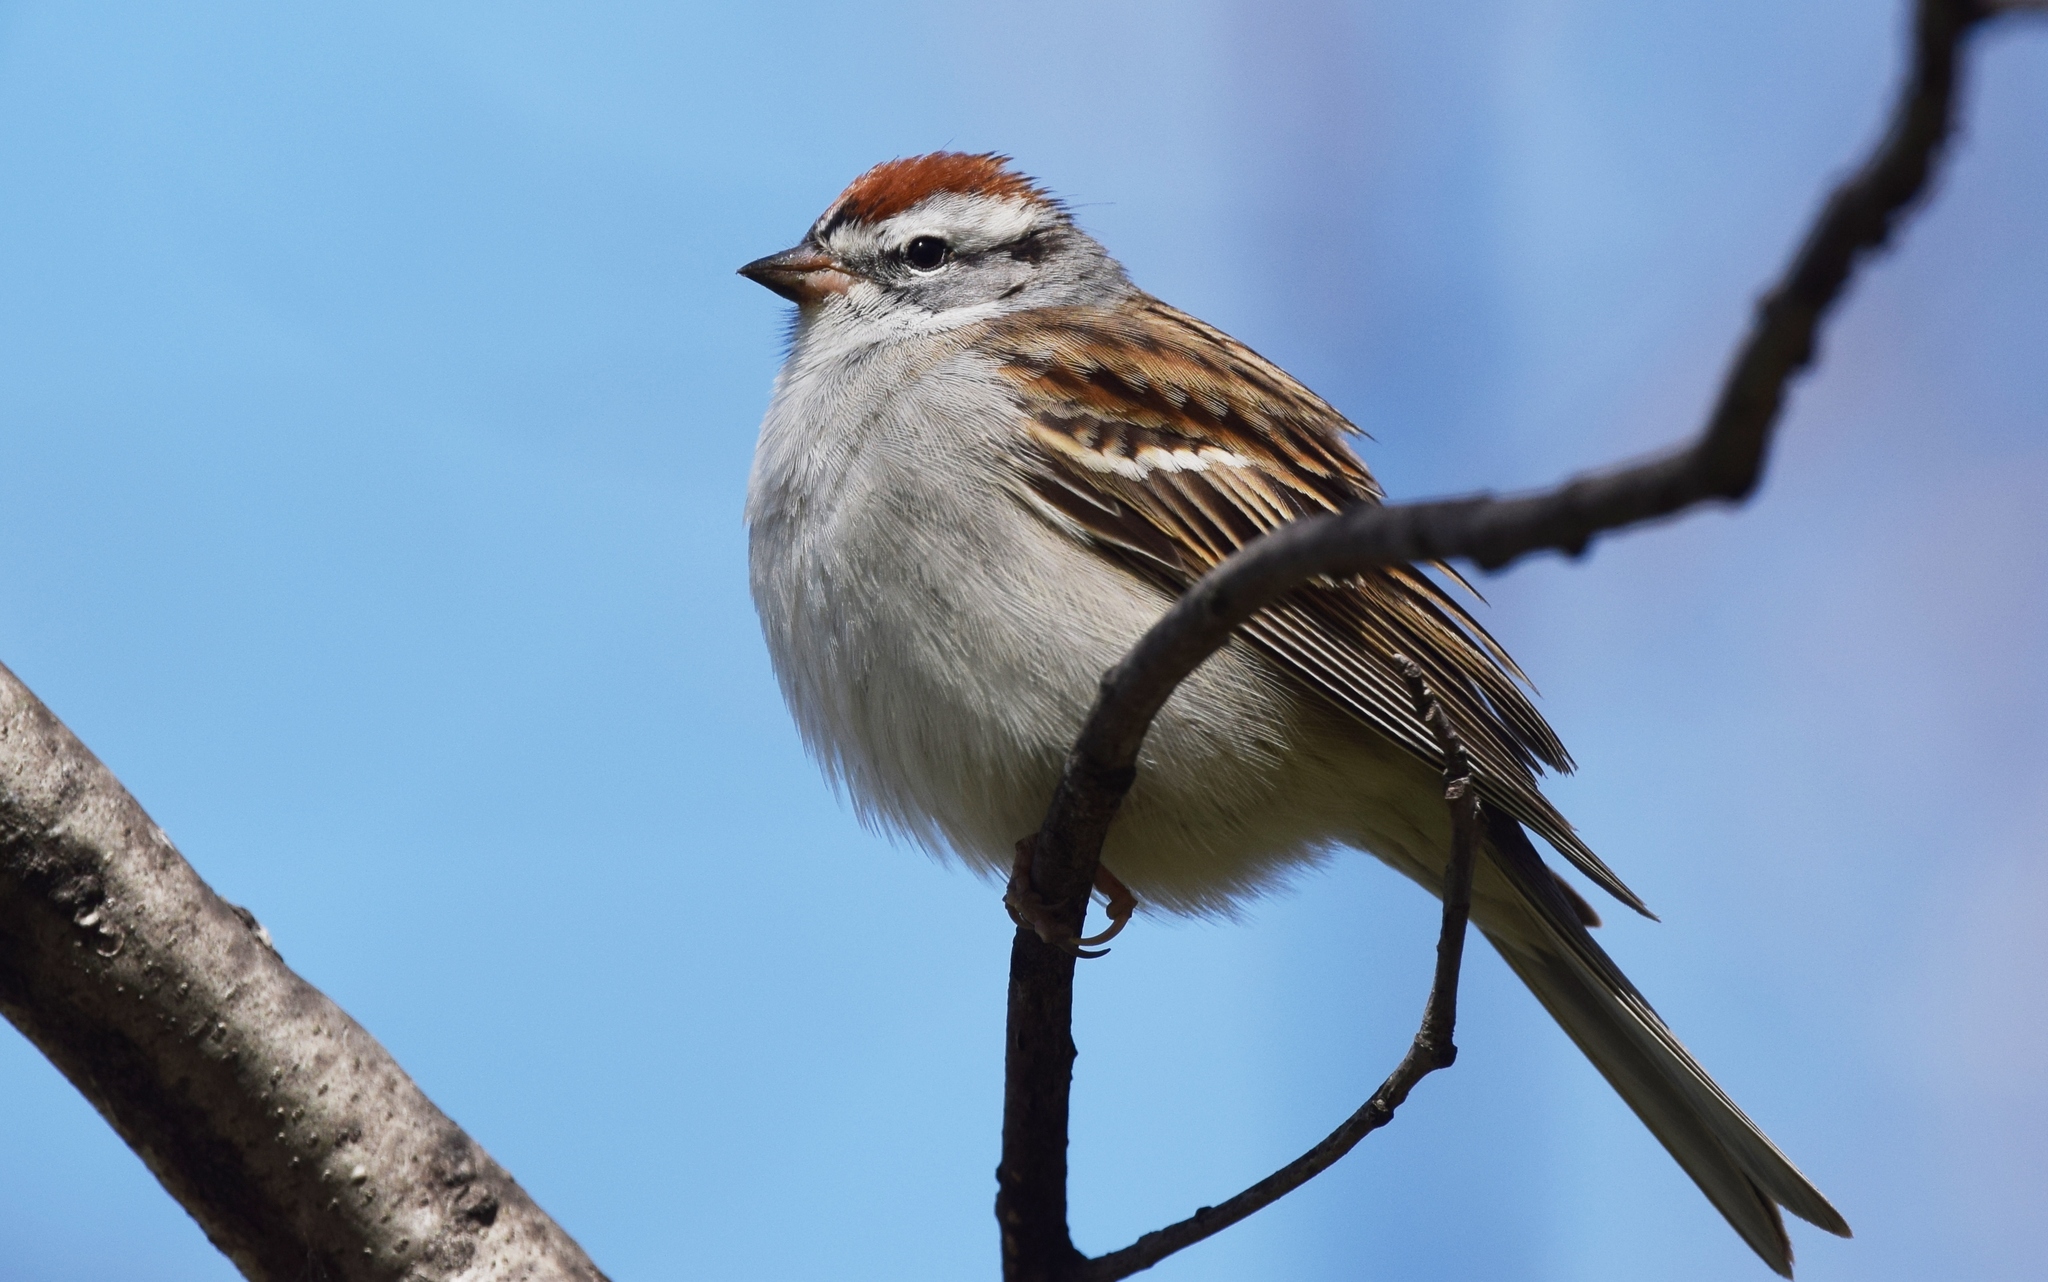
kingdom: Animalia
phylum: Chordata
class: Aves
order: Passeriformes
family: Passerellidae
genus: Spizella
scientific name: Spizella passerina
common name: Chipping sparrow
